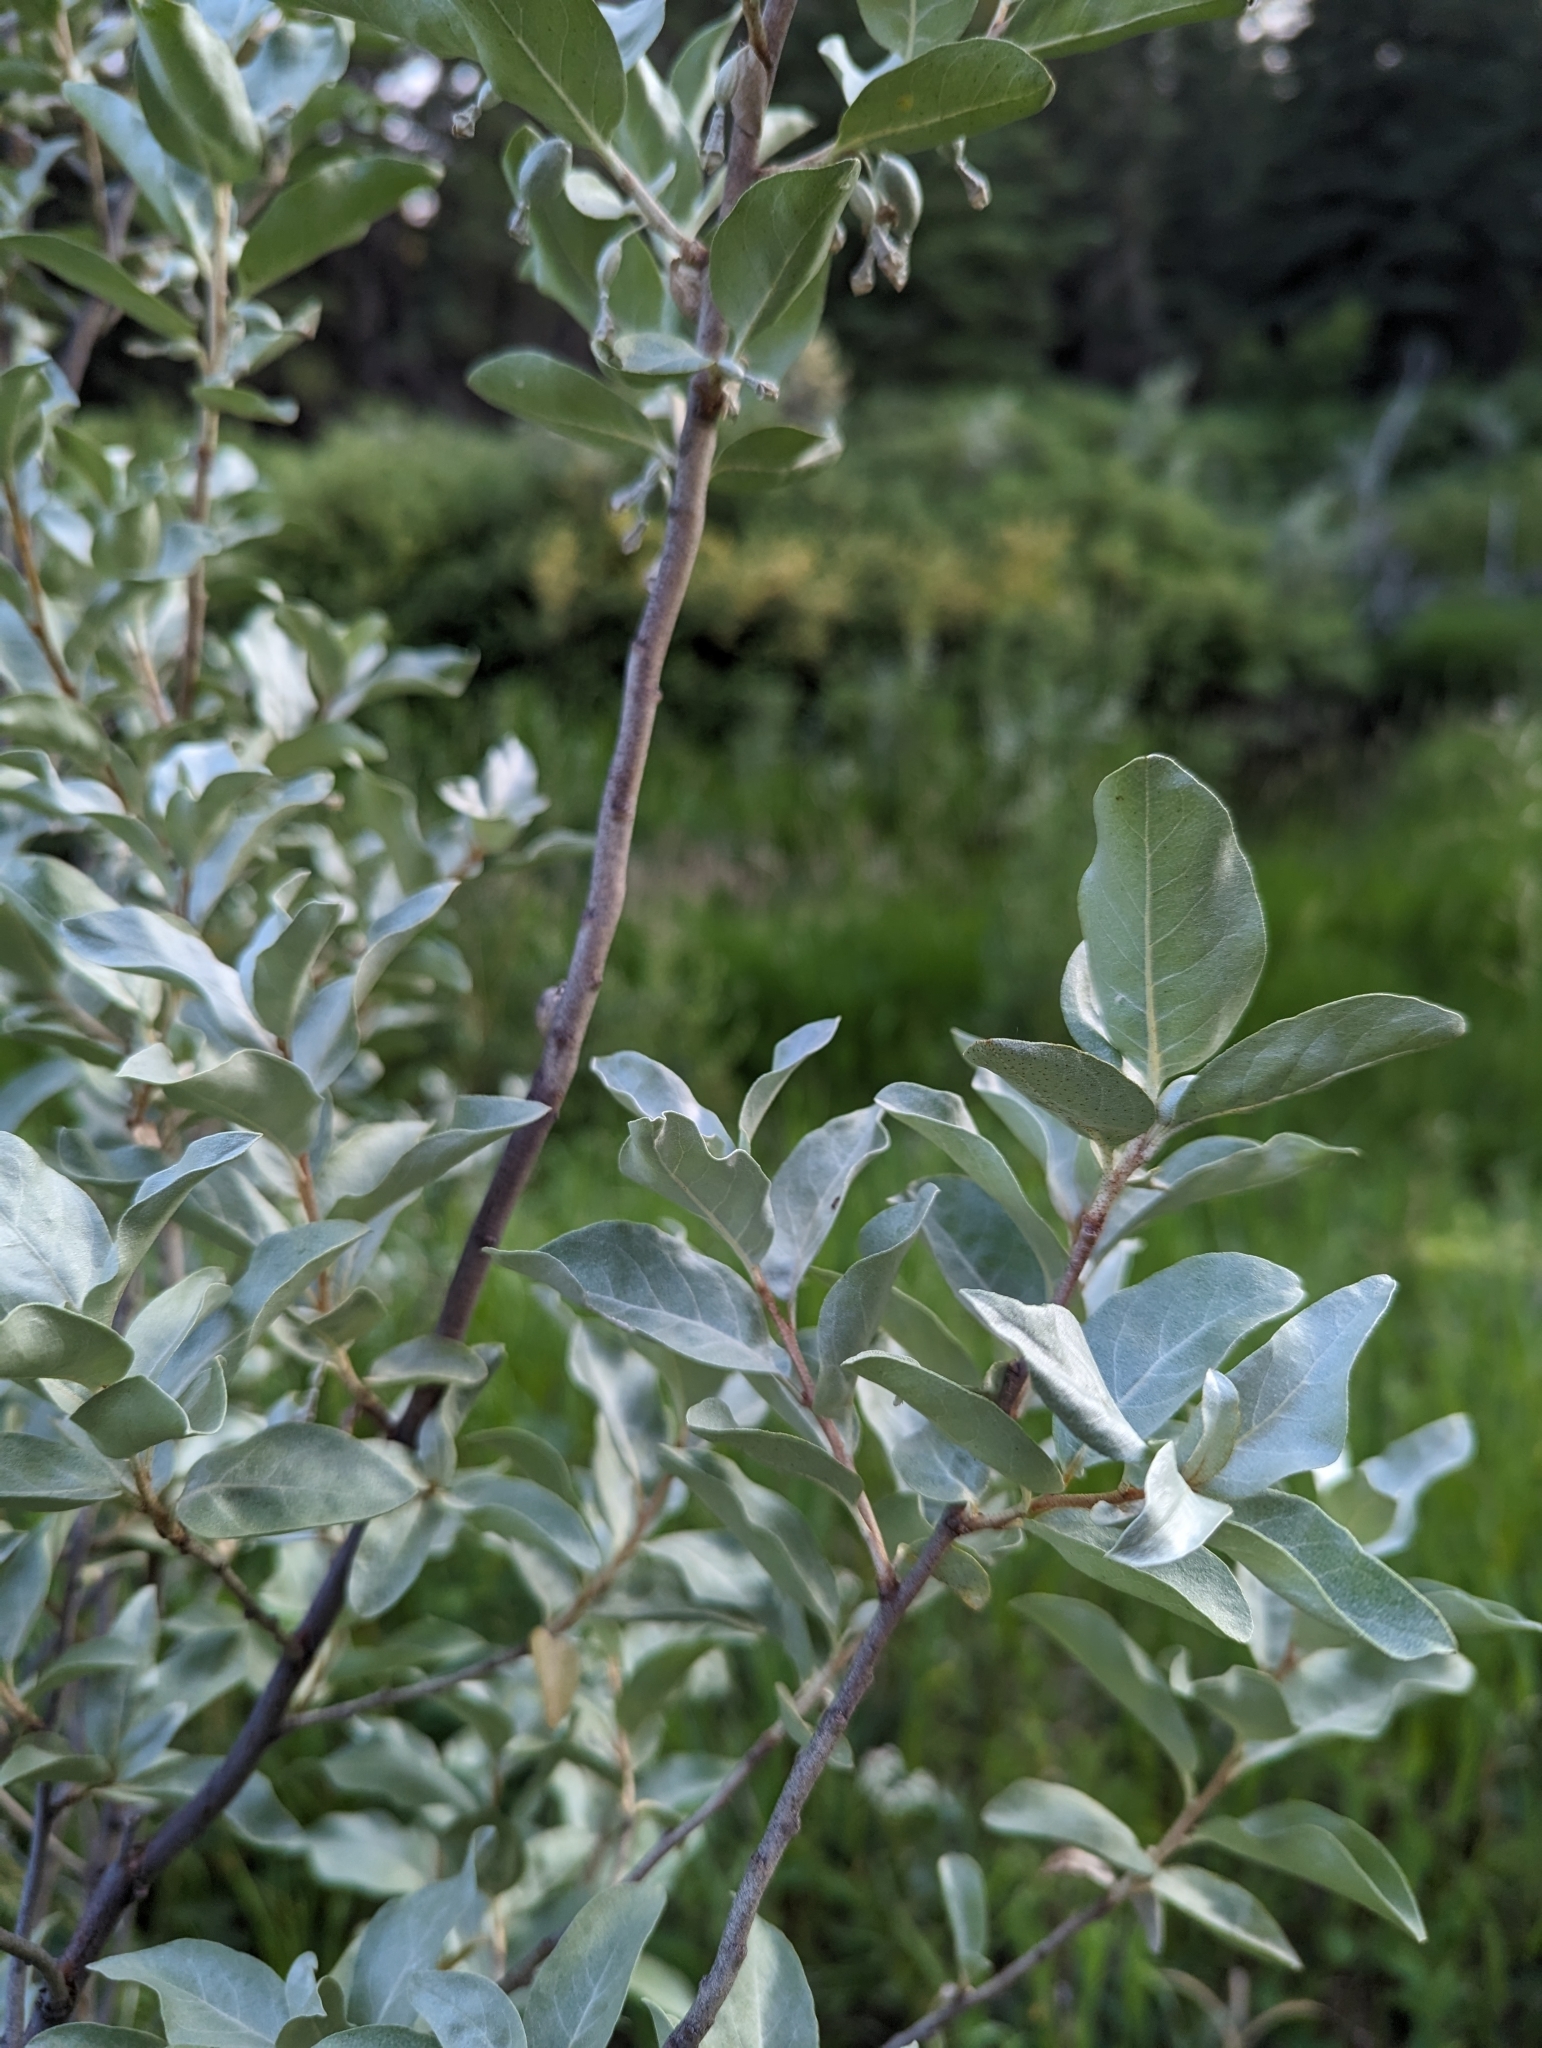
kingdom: Plantae
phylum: Tracheophyta
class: Magnoliopsida
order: Rosales
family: Elaeagnaceae
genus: Elaeagnus
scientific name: Elaeagnus commutata
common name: Silverberry
